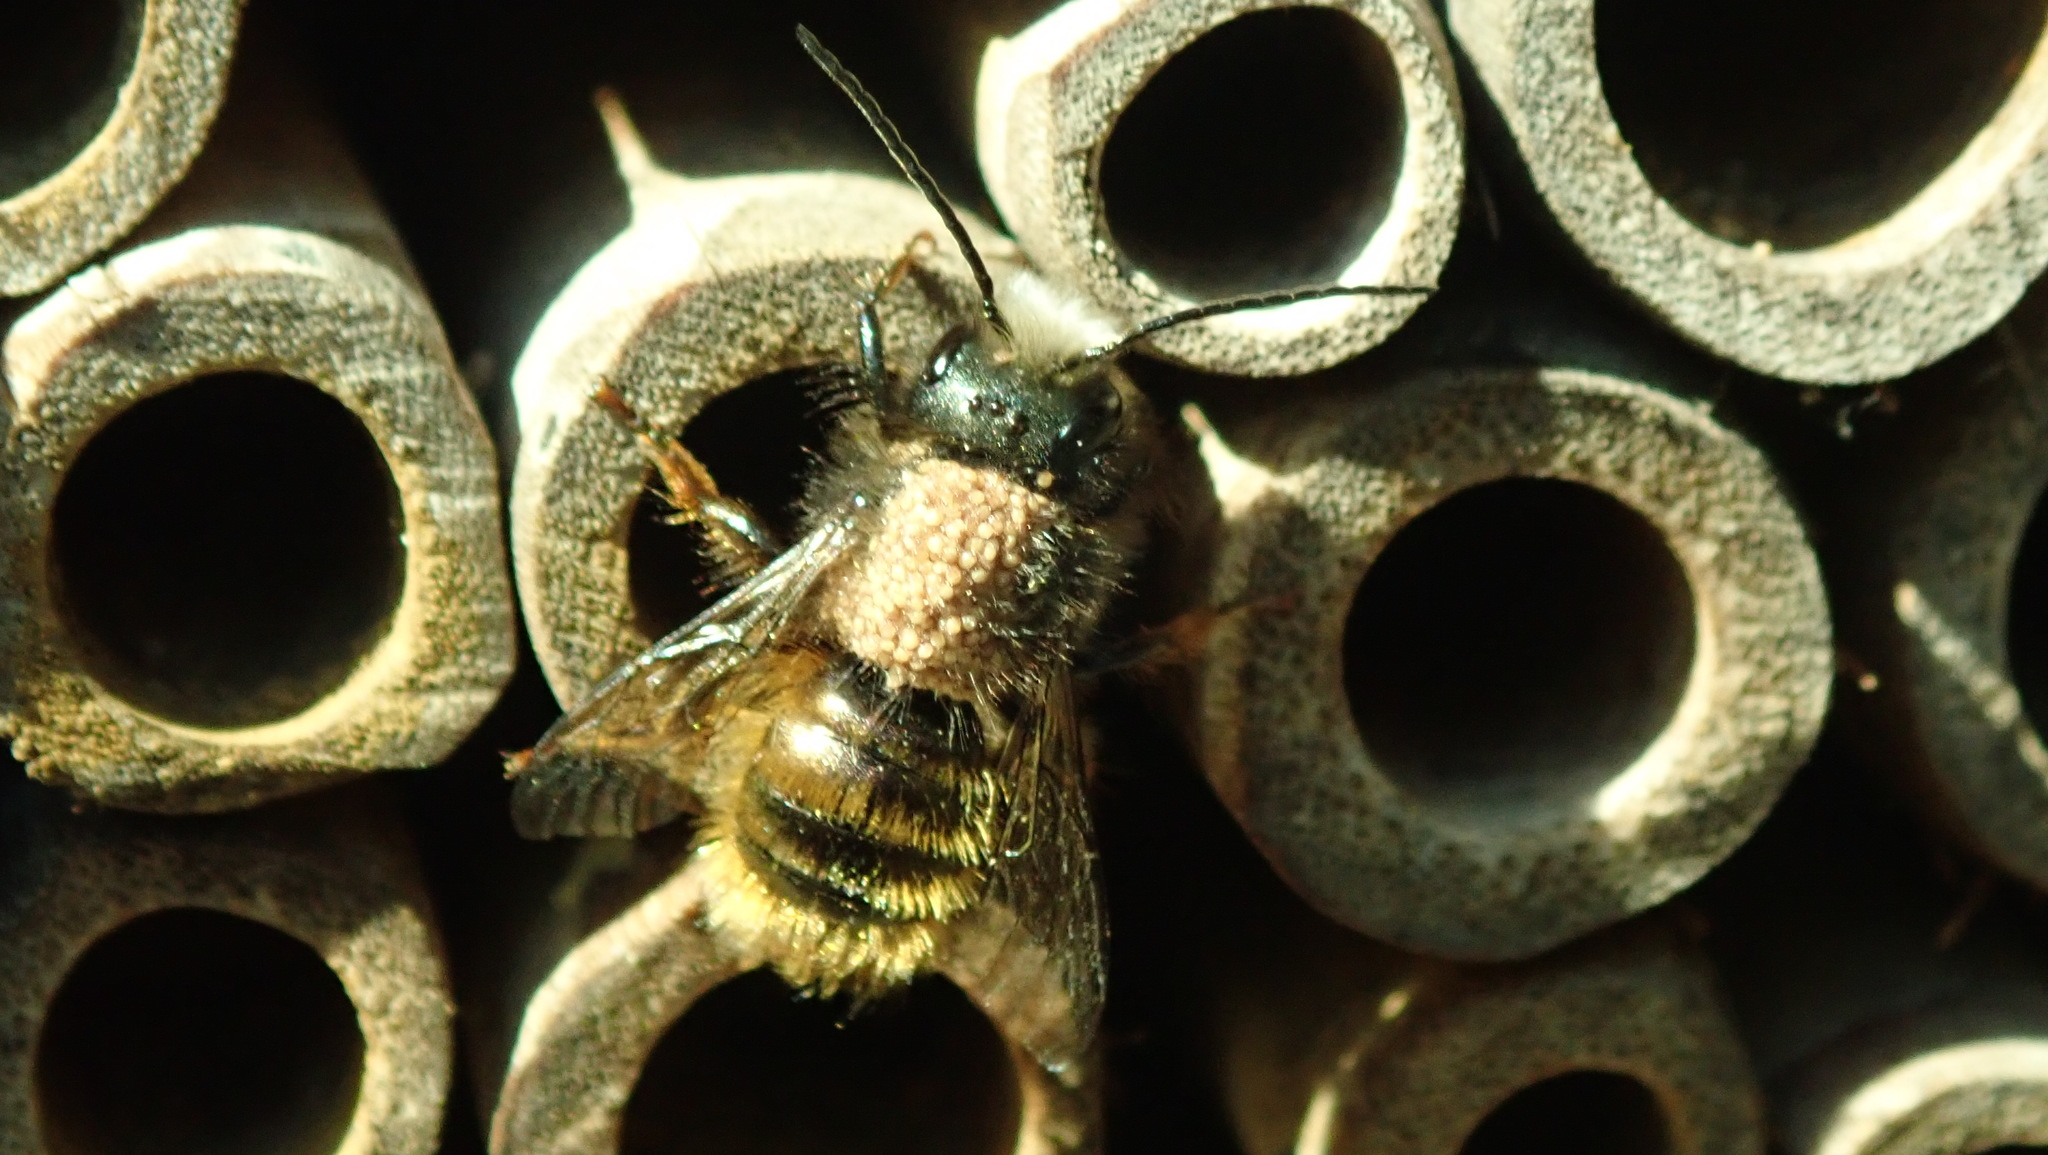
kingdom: Animalia
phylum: Arthropoda
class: Insecta
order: Hymenoptera
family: Megachilidae
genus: Osmia
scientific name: Osmia cornuta
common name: Mason bee
